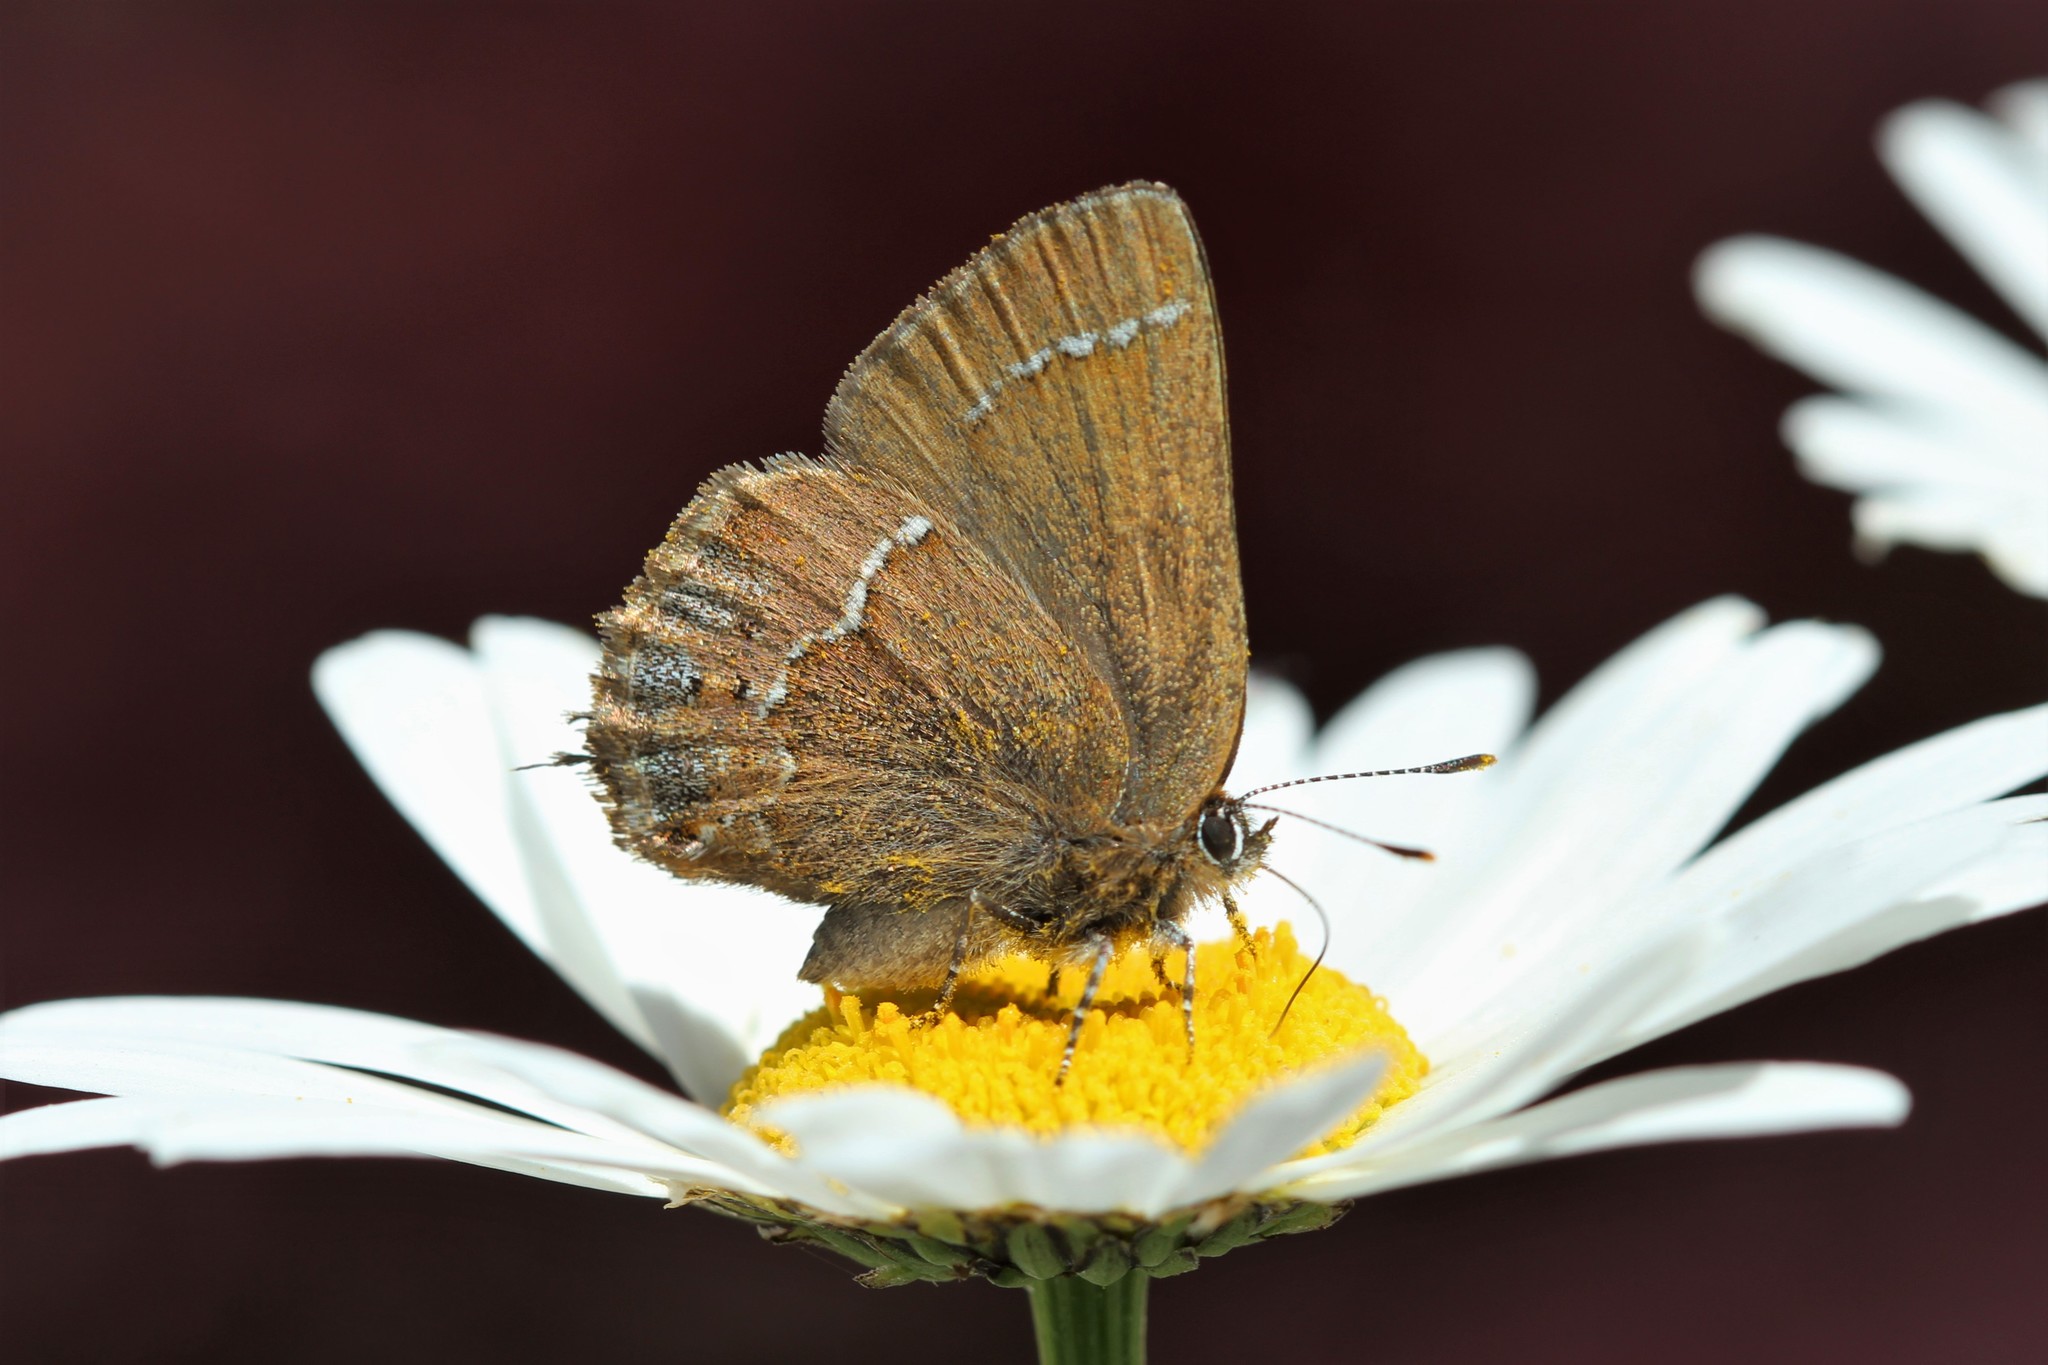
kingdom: Animalia
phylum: Arthropoda
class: Insecta
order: Lepidoptera
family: Lycaenidae
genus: Mitoura
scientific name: Mitoura gryneus
